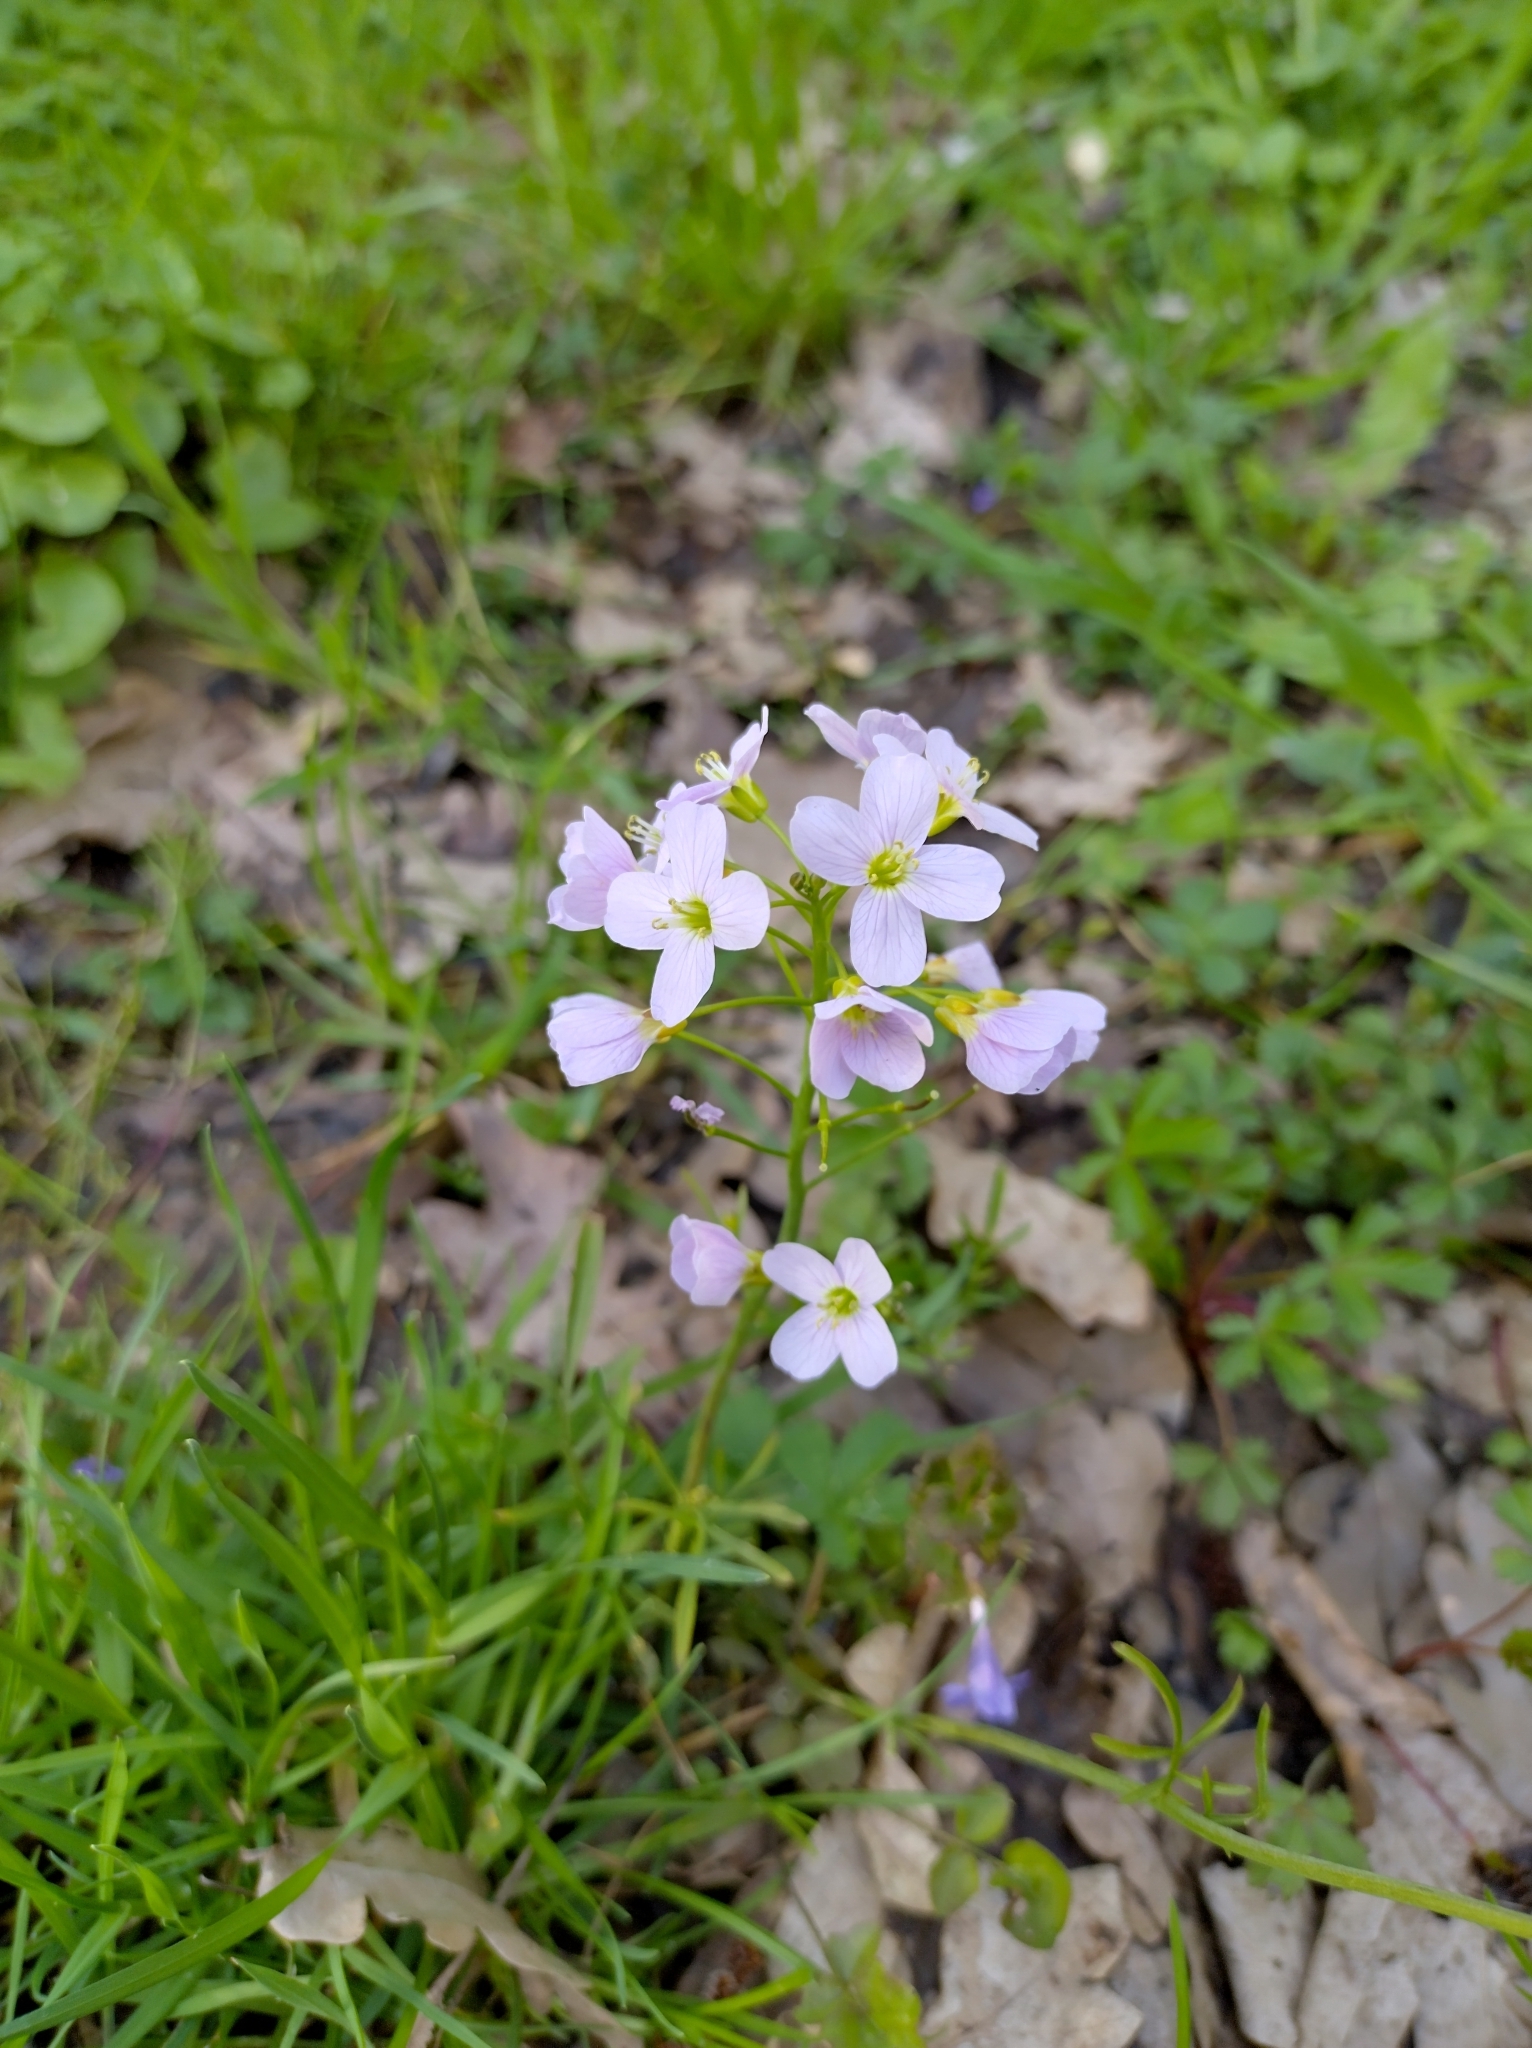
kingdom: Plantae
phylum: Tracheophyta
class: Magnoliopsida
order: Brassicales
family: Brassicaceae
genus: Cardamine
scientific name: Cardamine pratensis
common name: Cuckoo flower
